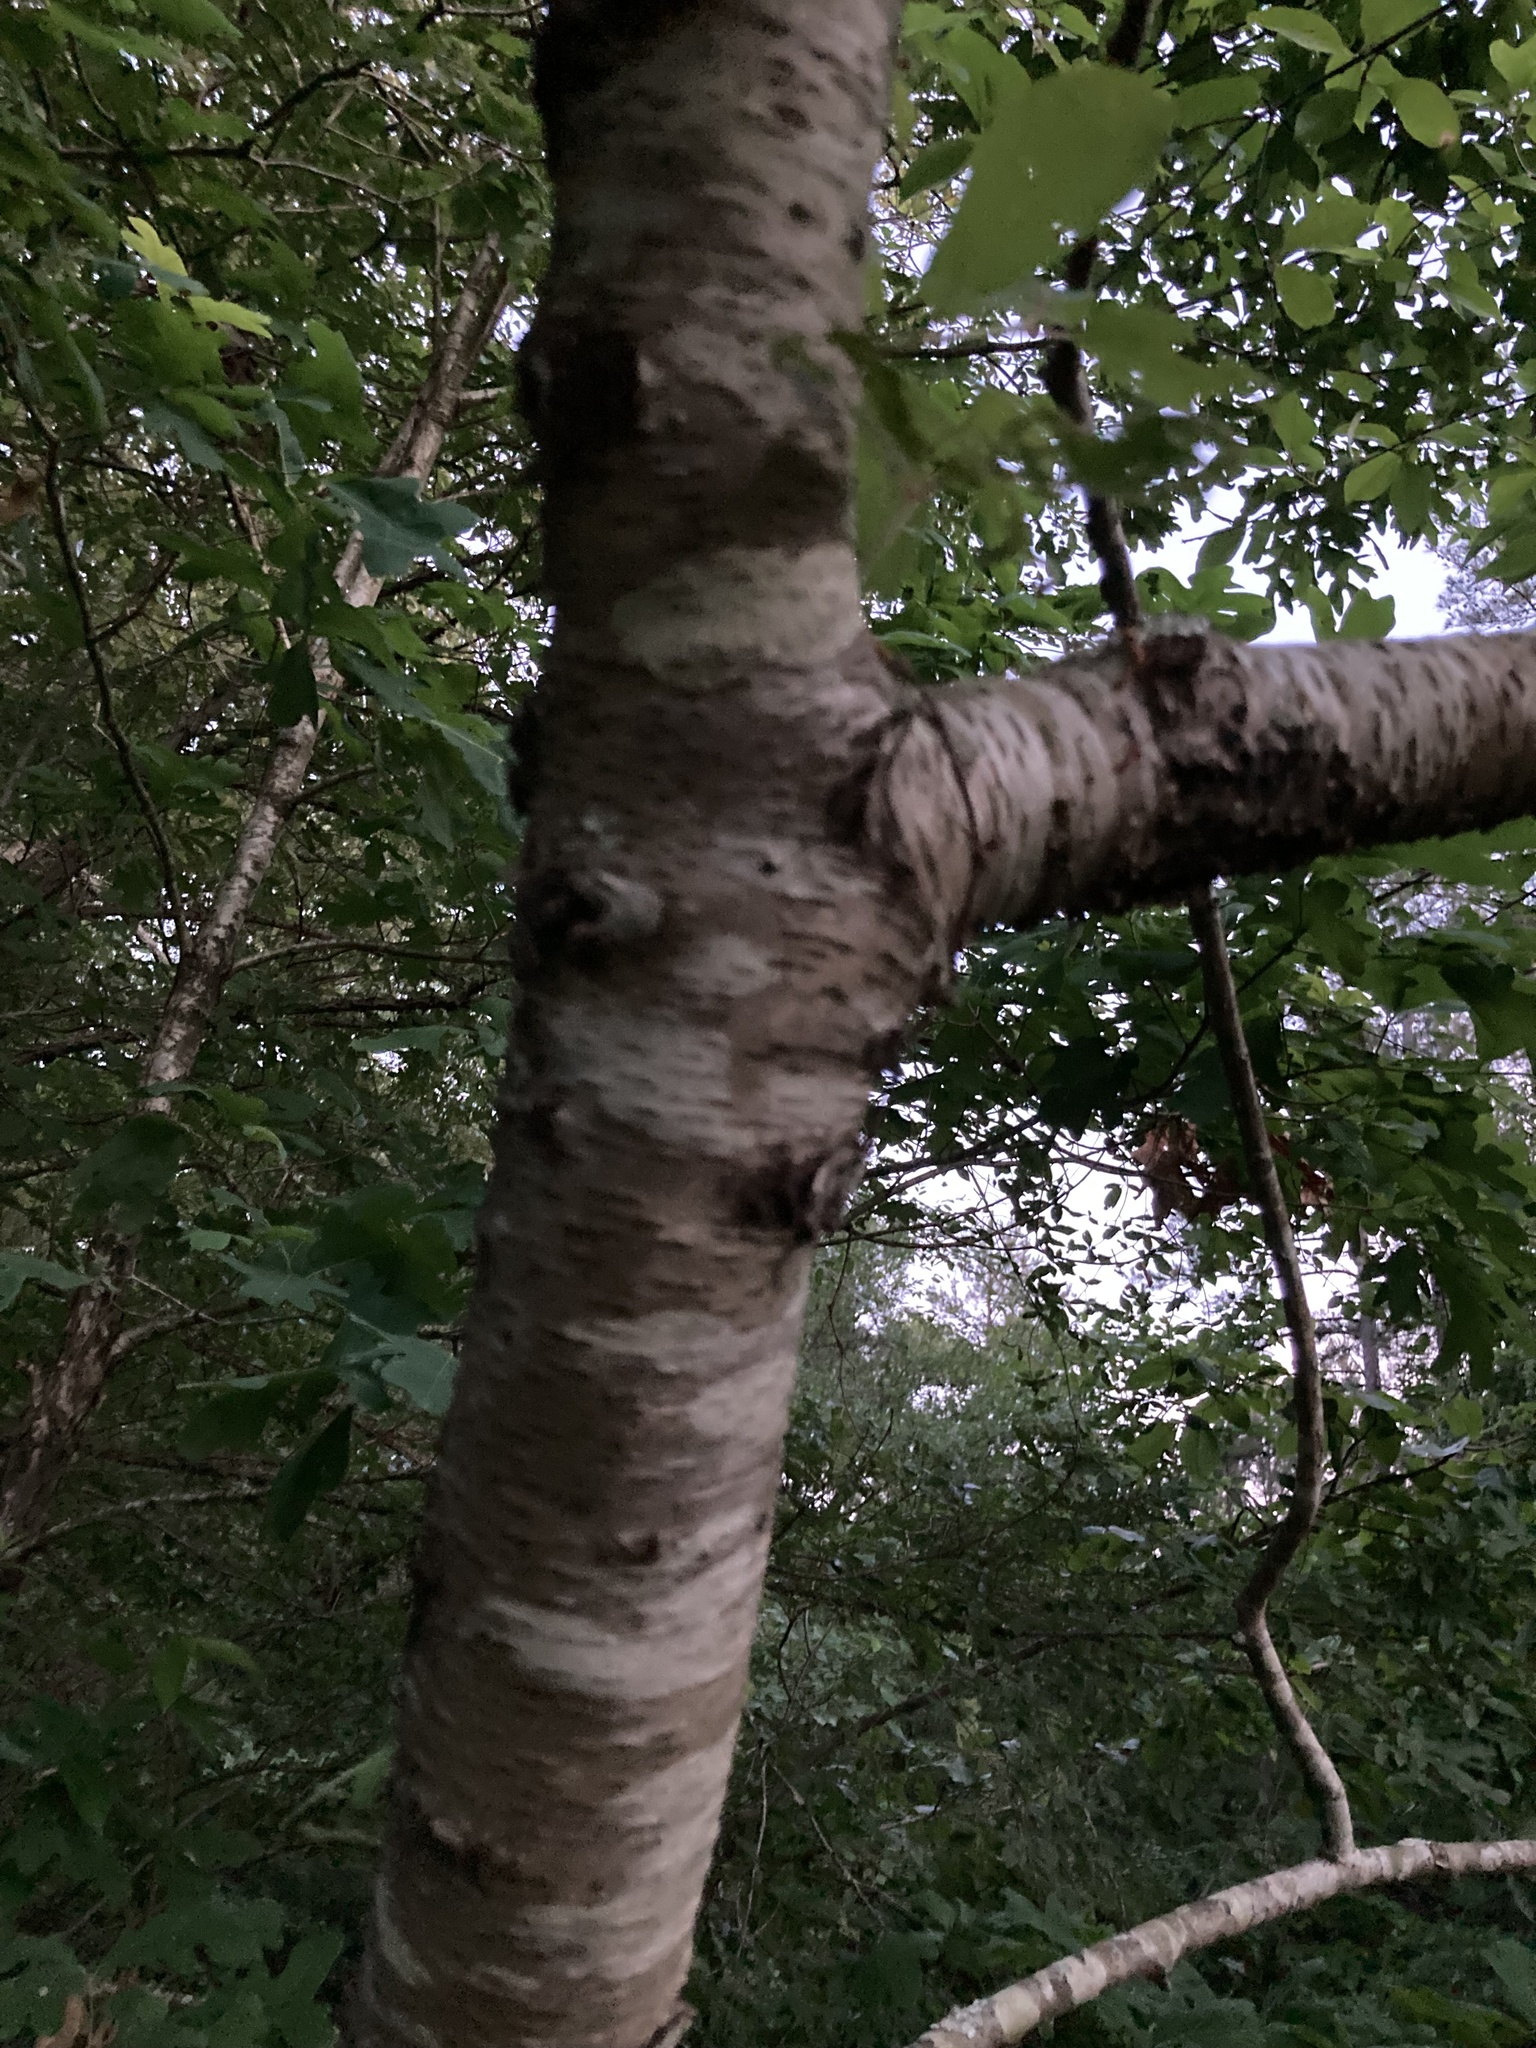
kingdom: Plantae
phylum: Tracheophyta
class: Magnoliopsida
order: Rosales
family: Rosaceae
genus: Prunus
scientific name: Prunus serotina
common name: Black cherry
